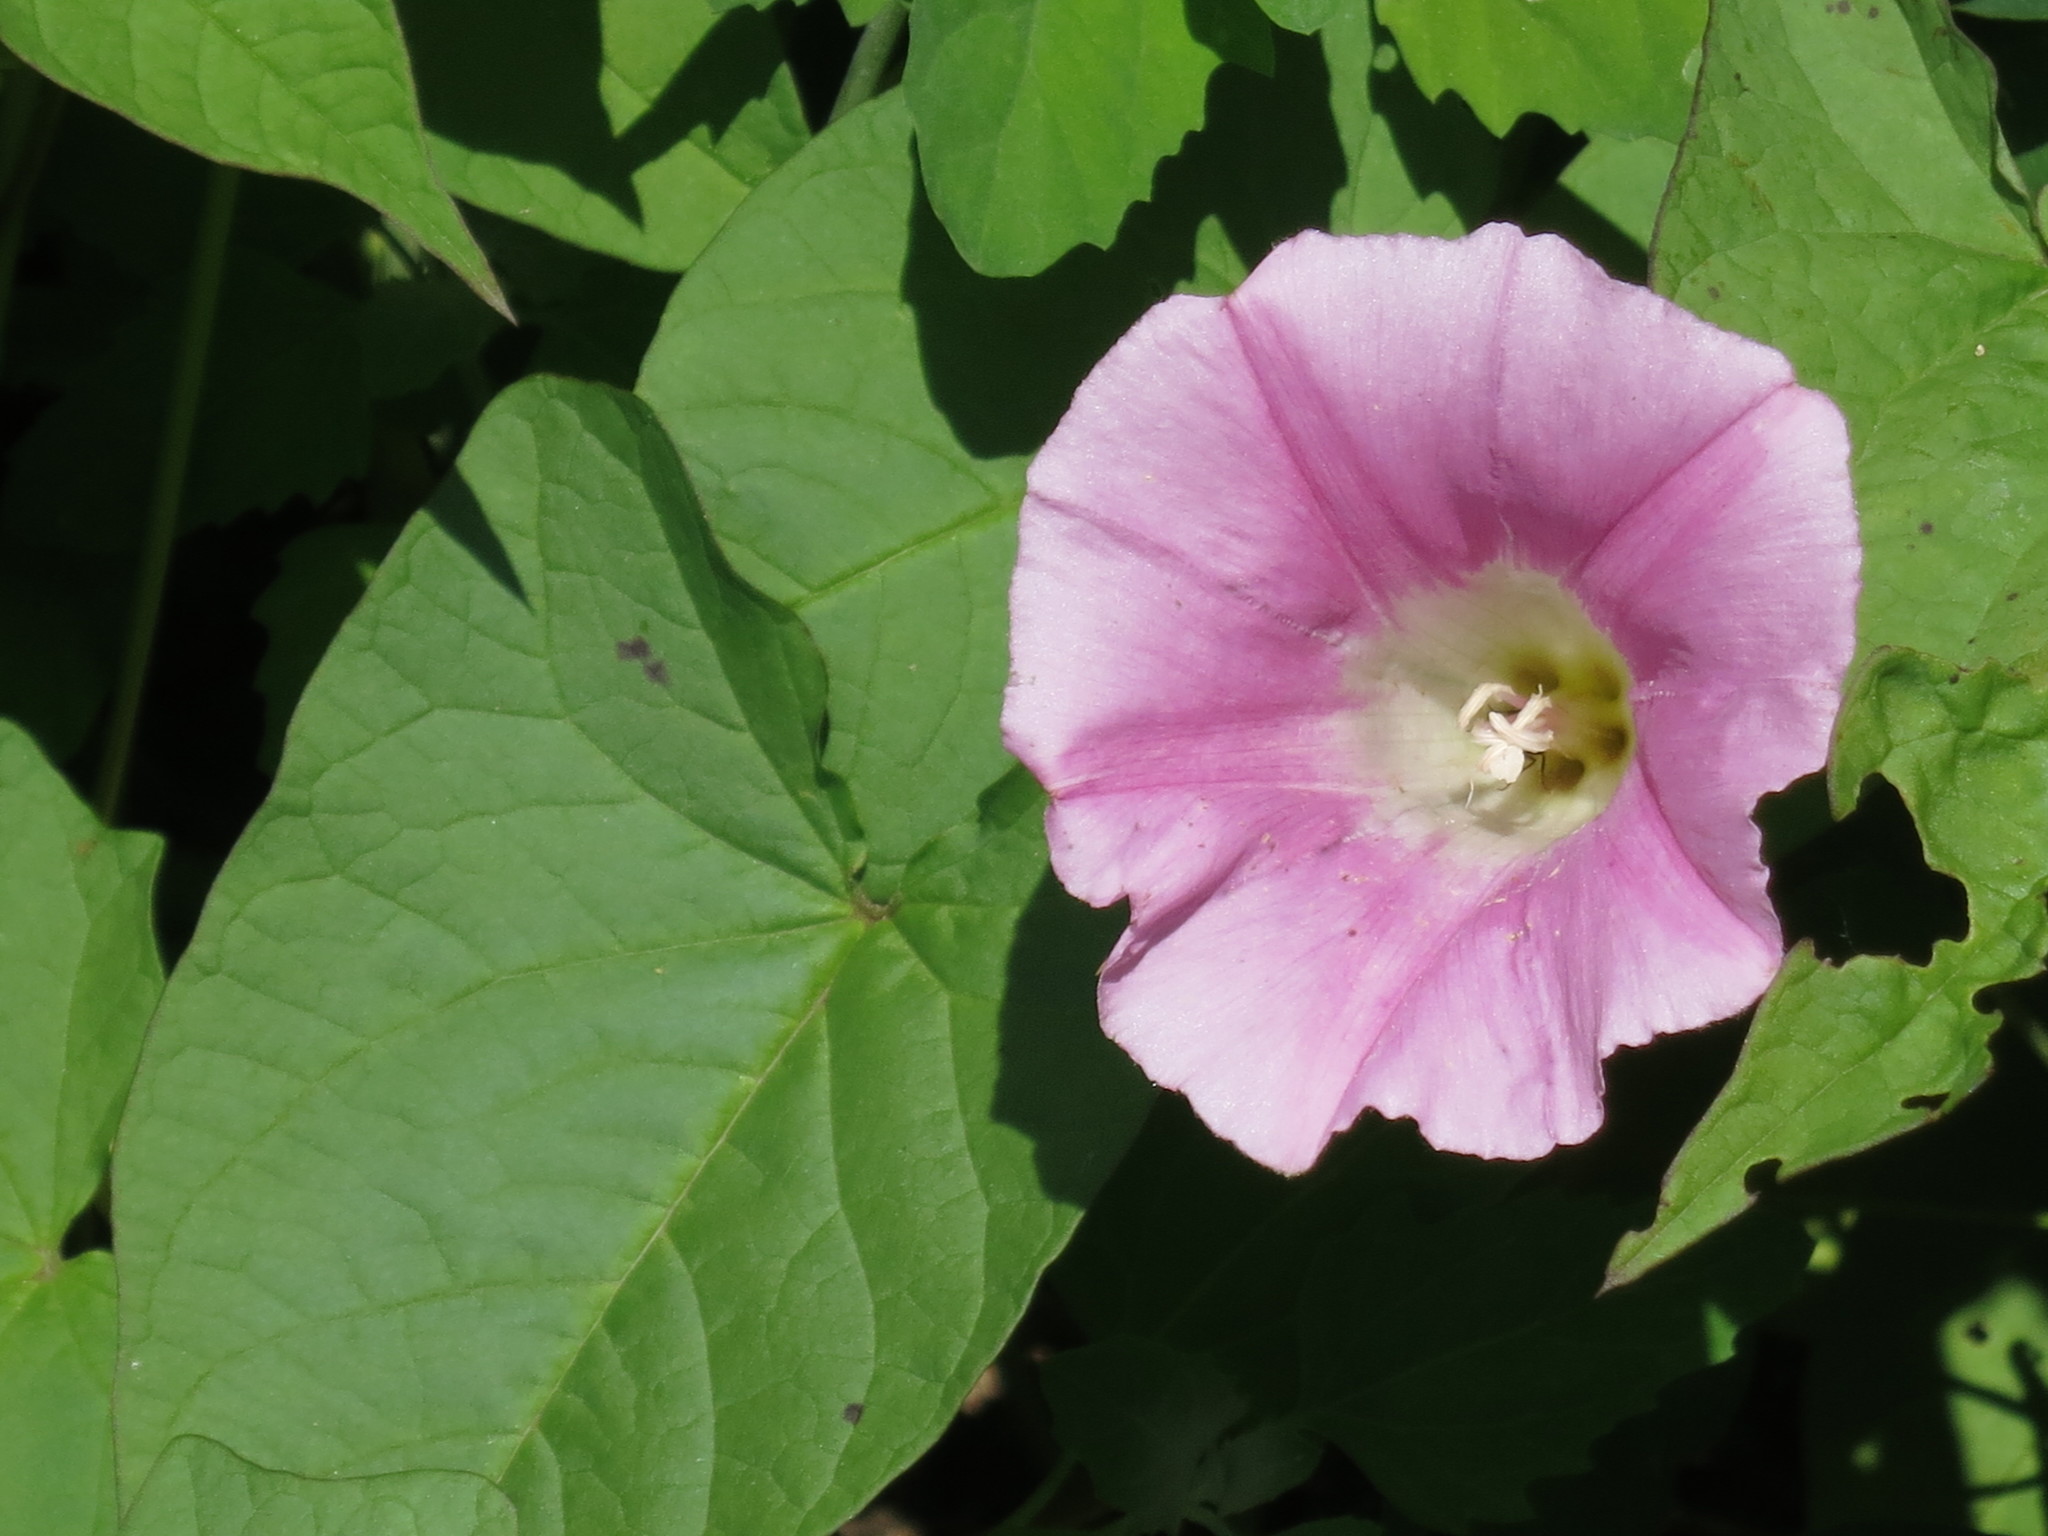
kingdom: Plantae
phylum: Tracheophyta
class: Magnoliopsida
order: Solanales
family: Convolvulaceae
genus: Calystegia
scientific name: Calystegia sepium
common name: Hedge bindweed
